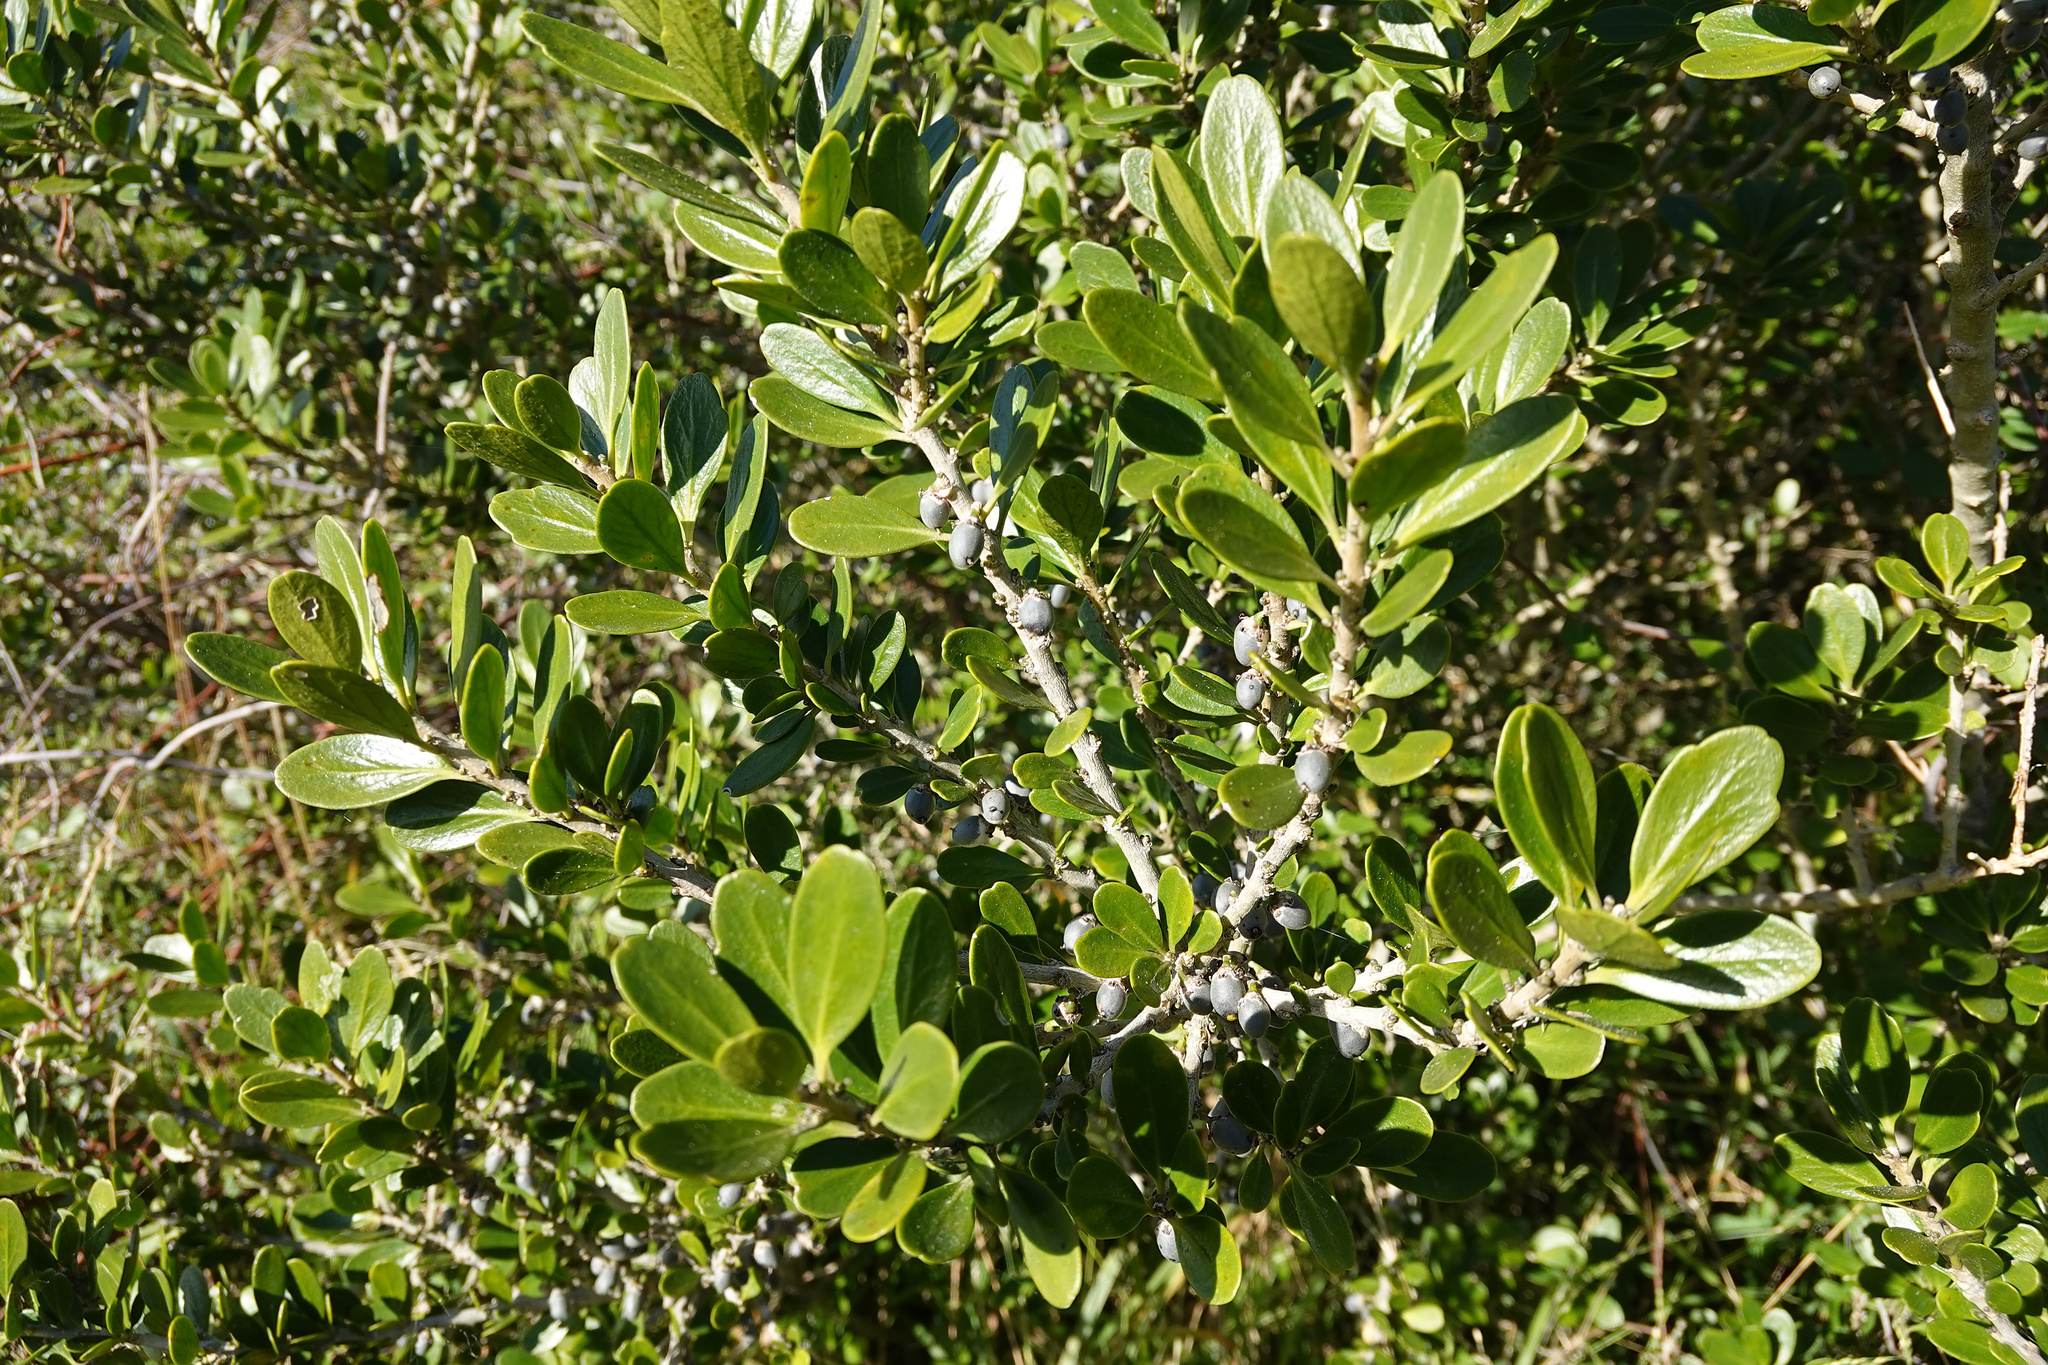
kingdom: Plantae
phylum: Tracheophyta
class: Magnoliopsida
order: Malpighiales
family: Violaceae
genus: Melicytus
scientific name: Melicytus obovatus
